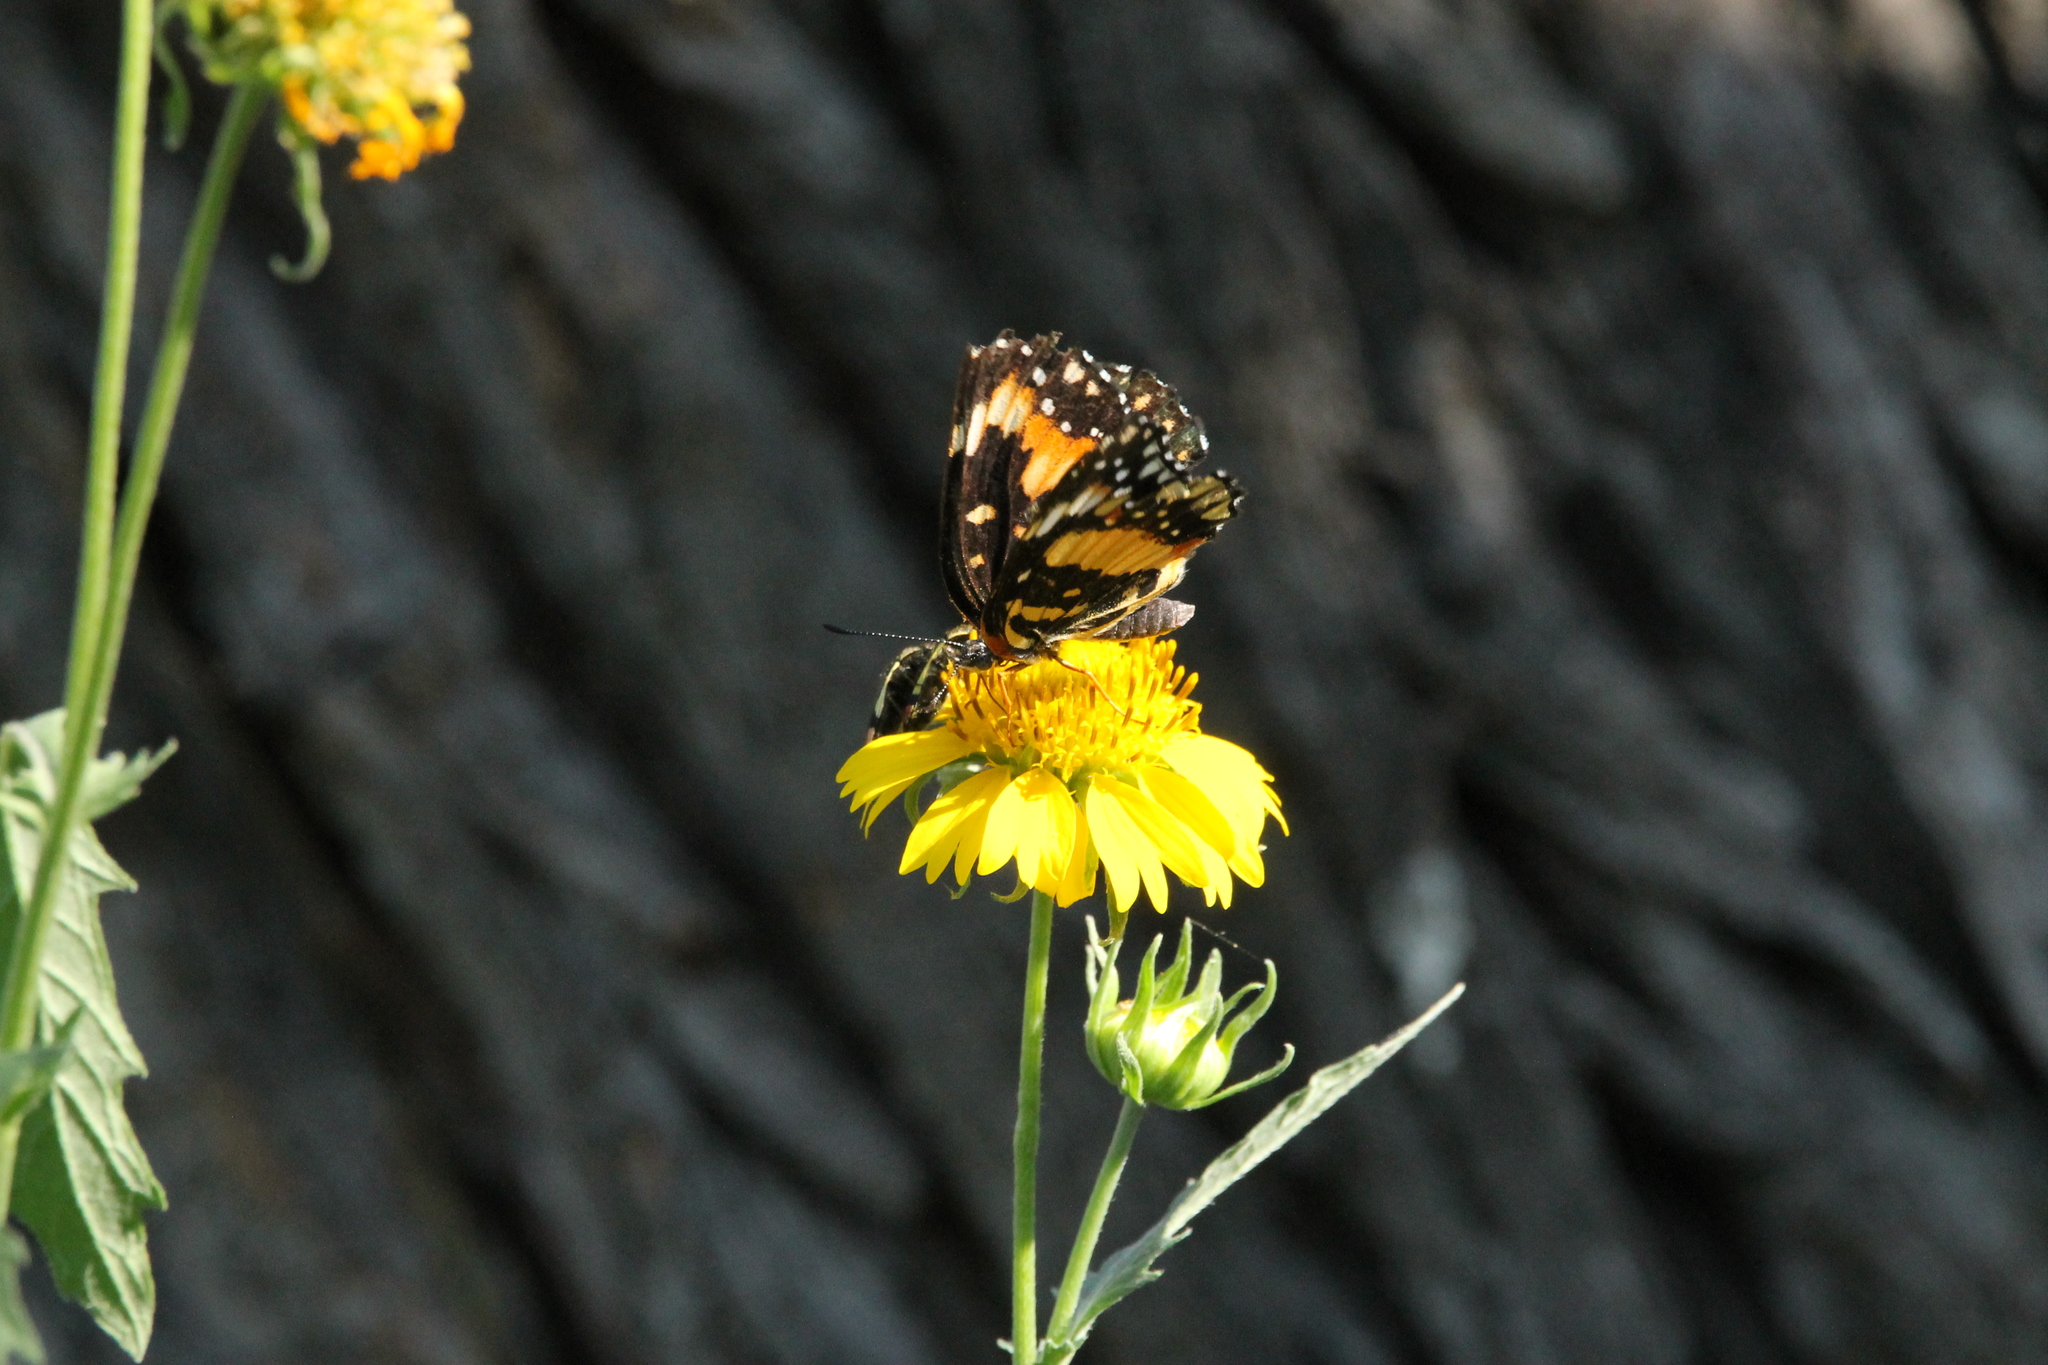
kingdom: Animalia
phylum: Arthropoda
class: Insecta
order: Lepidoptera
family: Nymphalidae
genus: Chlosyne
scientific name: Chlosyne lacinia
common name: Bordered patch
